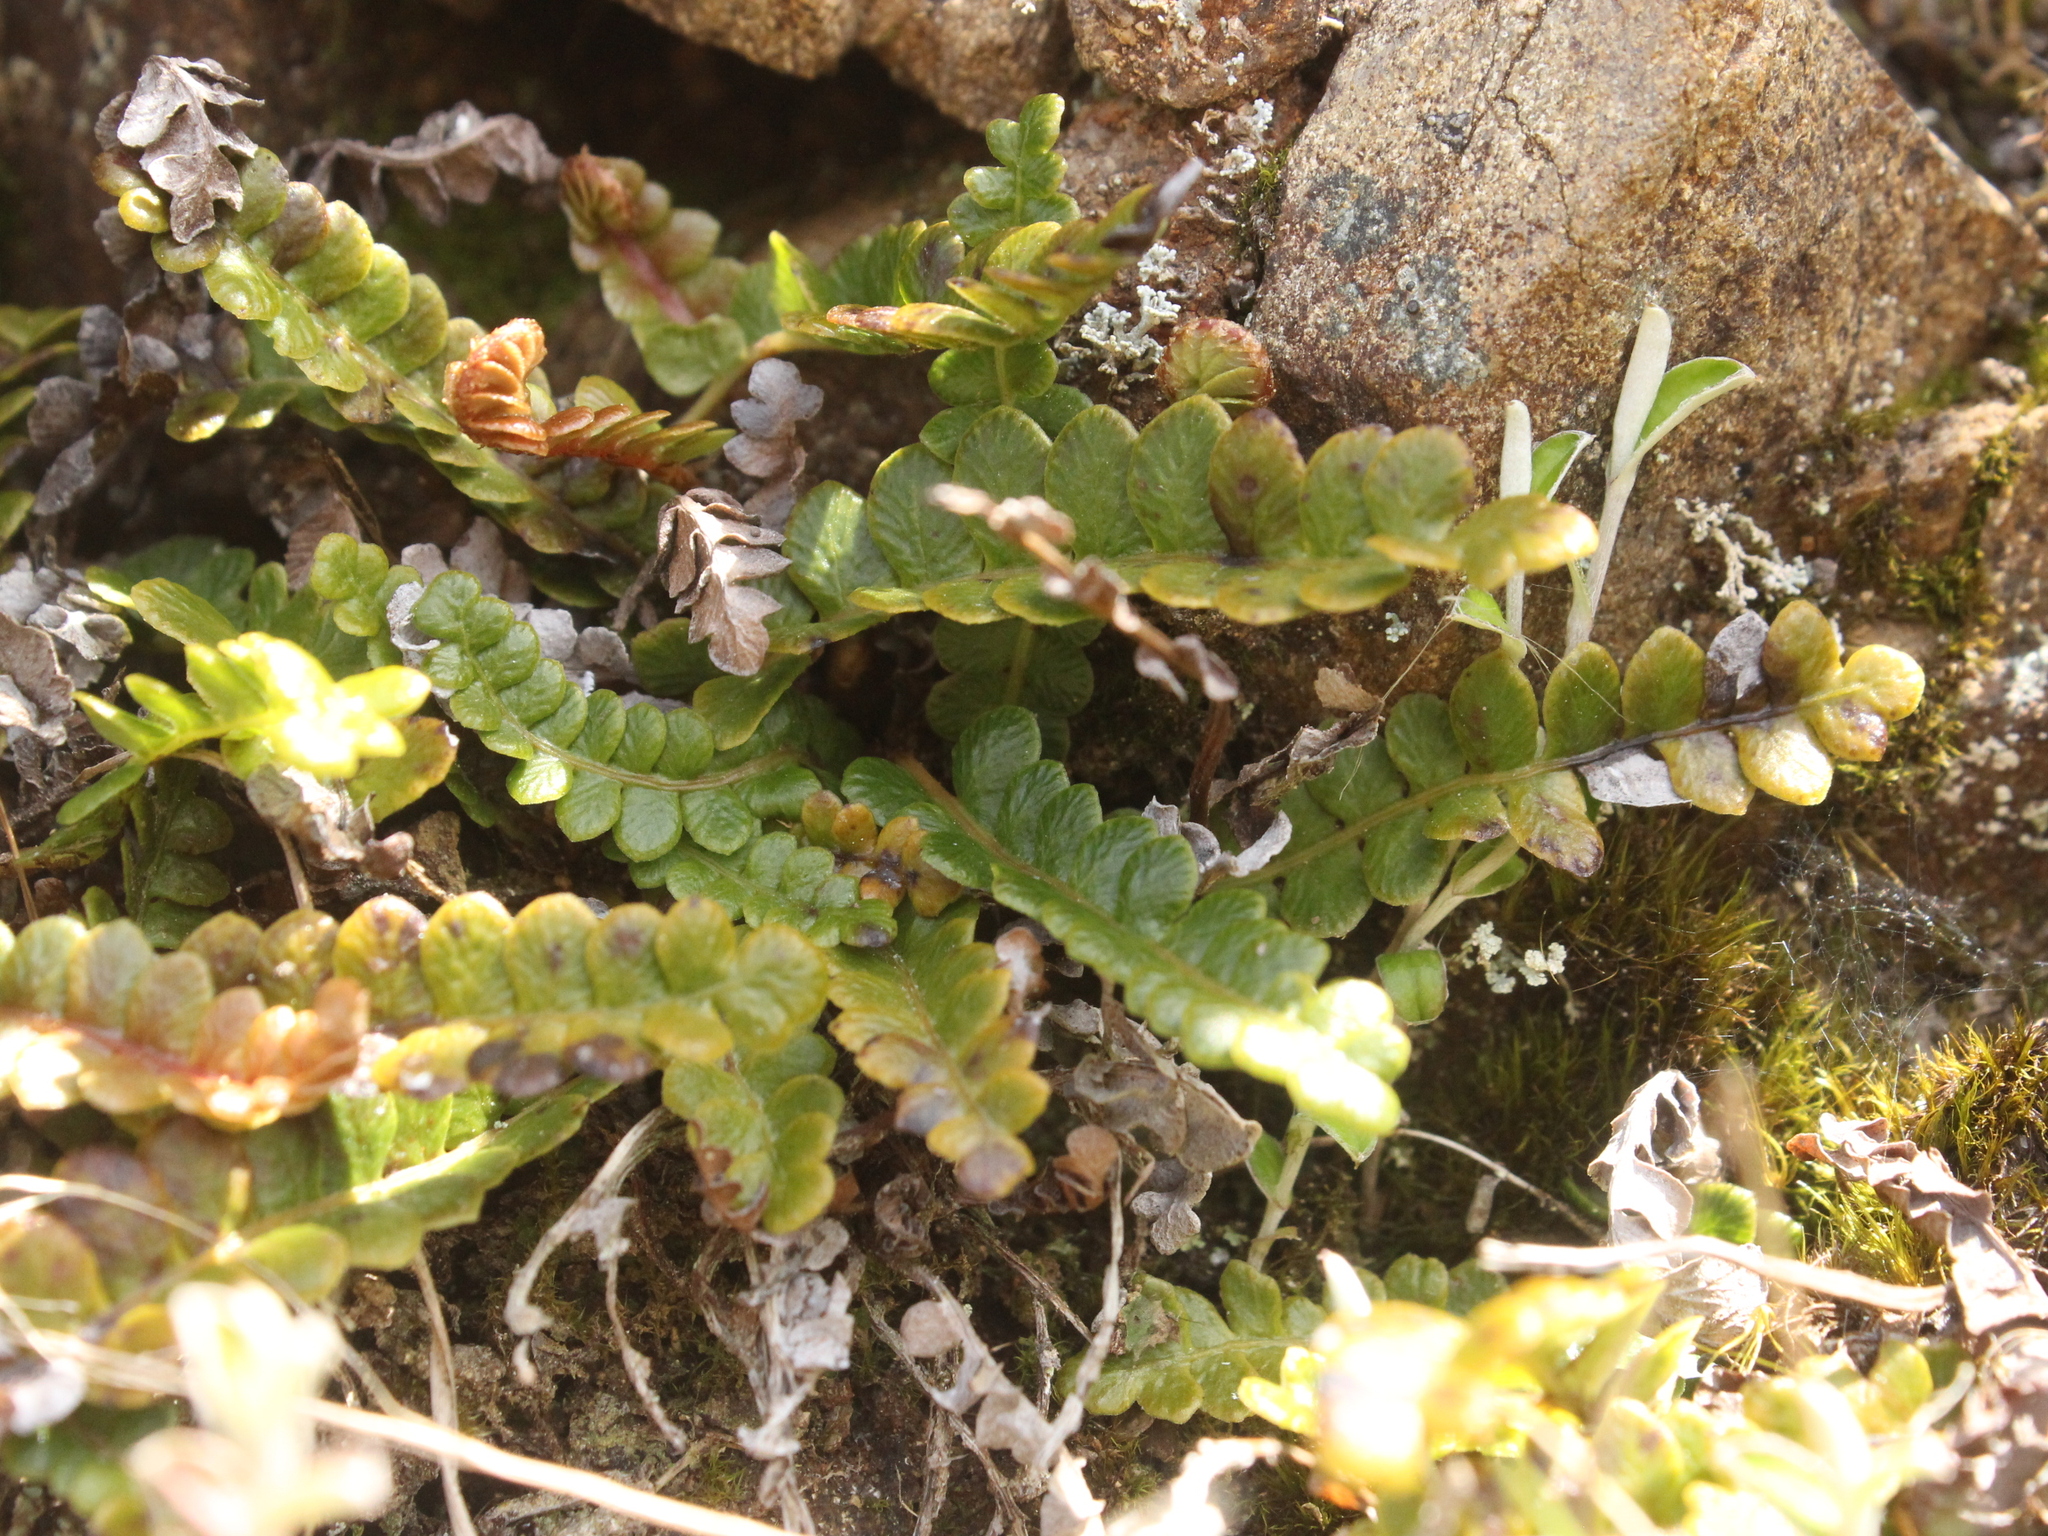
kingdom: Plantae
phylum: Tracheophyta
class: Polypodiopsida
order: Polypodiales
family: Blechnaceae
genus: Austroblechnum
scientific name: Austroblechnum penna-marina
